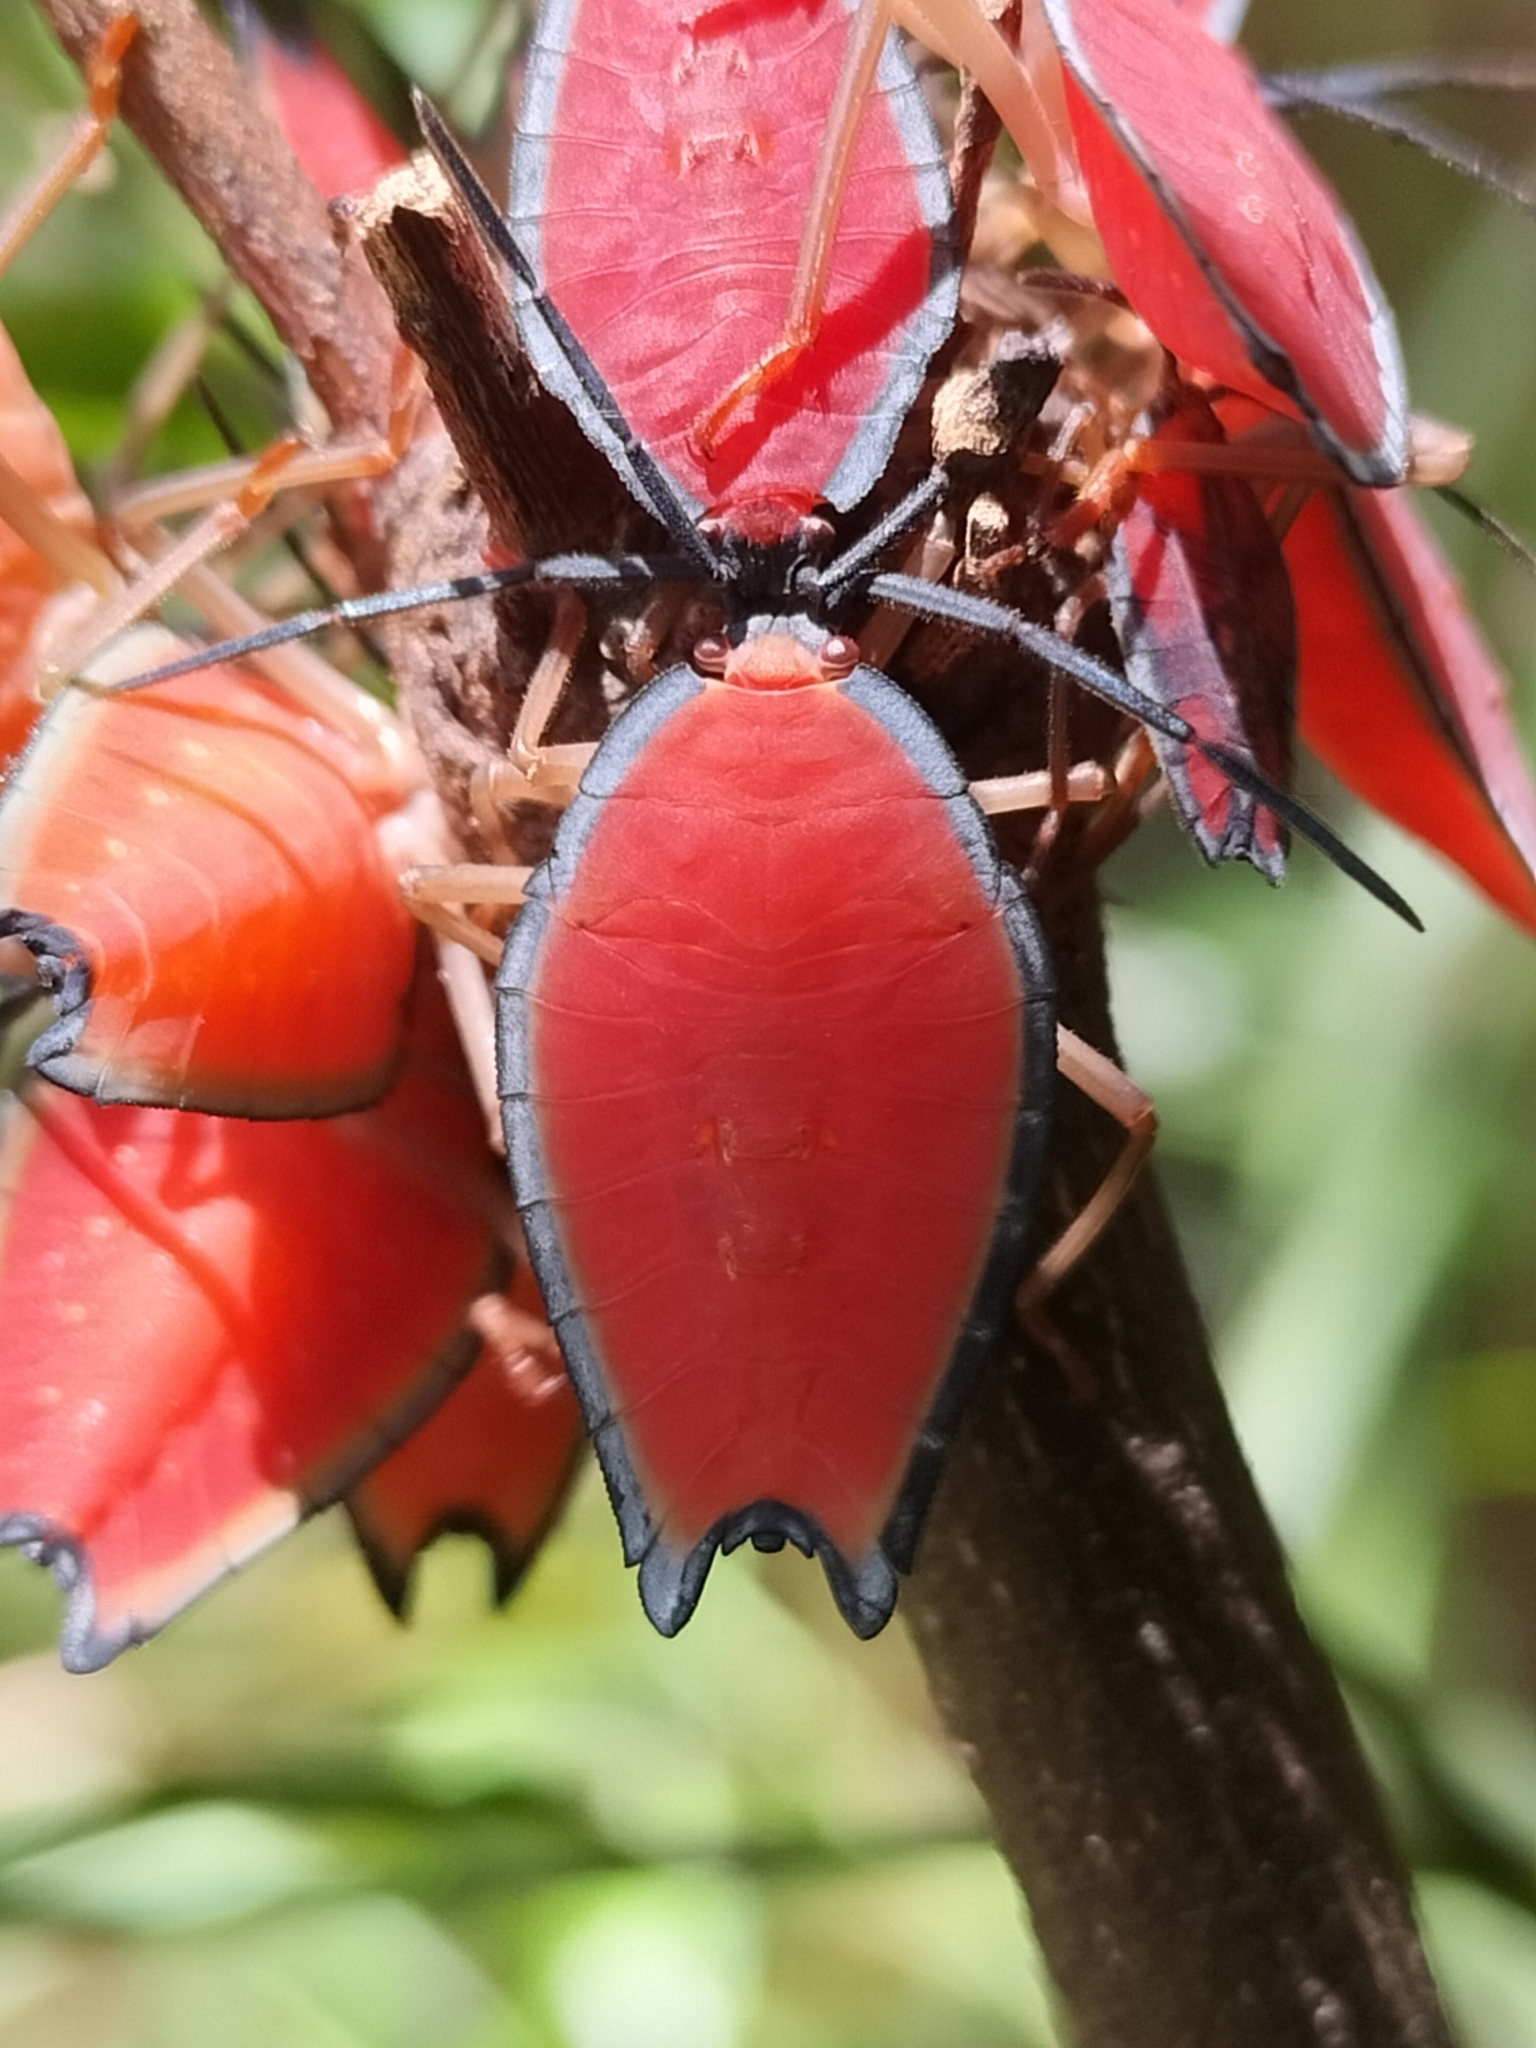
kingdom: Animalia
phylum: Arthropoda
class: Insecta
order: Hemiptera
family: Tessaratomidae
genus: Lyramorpha
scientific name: Lyramorpha parens
